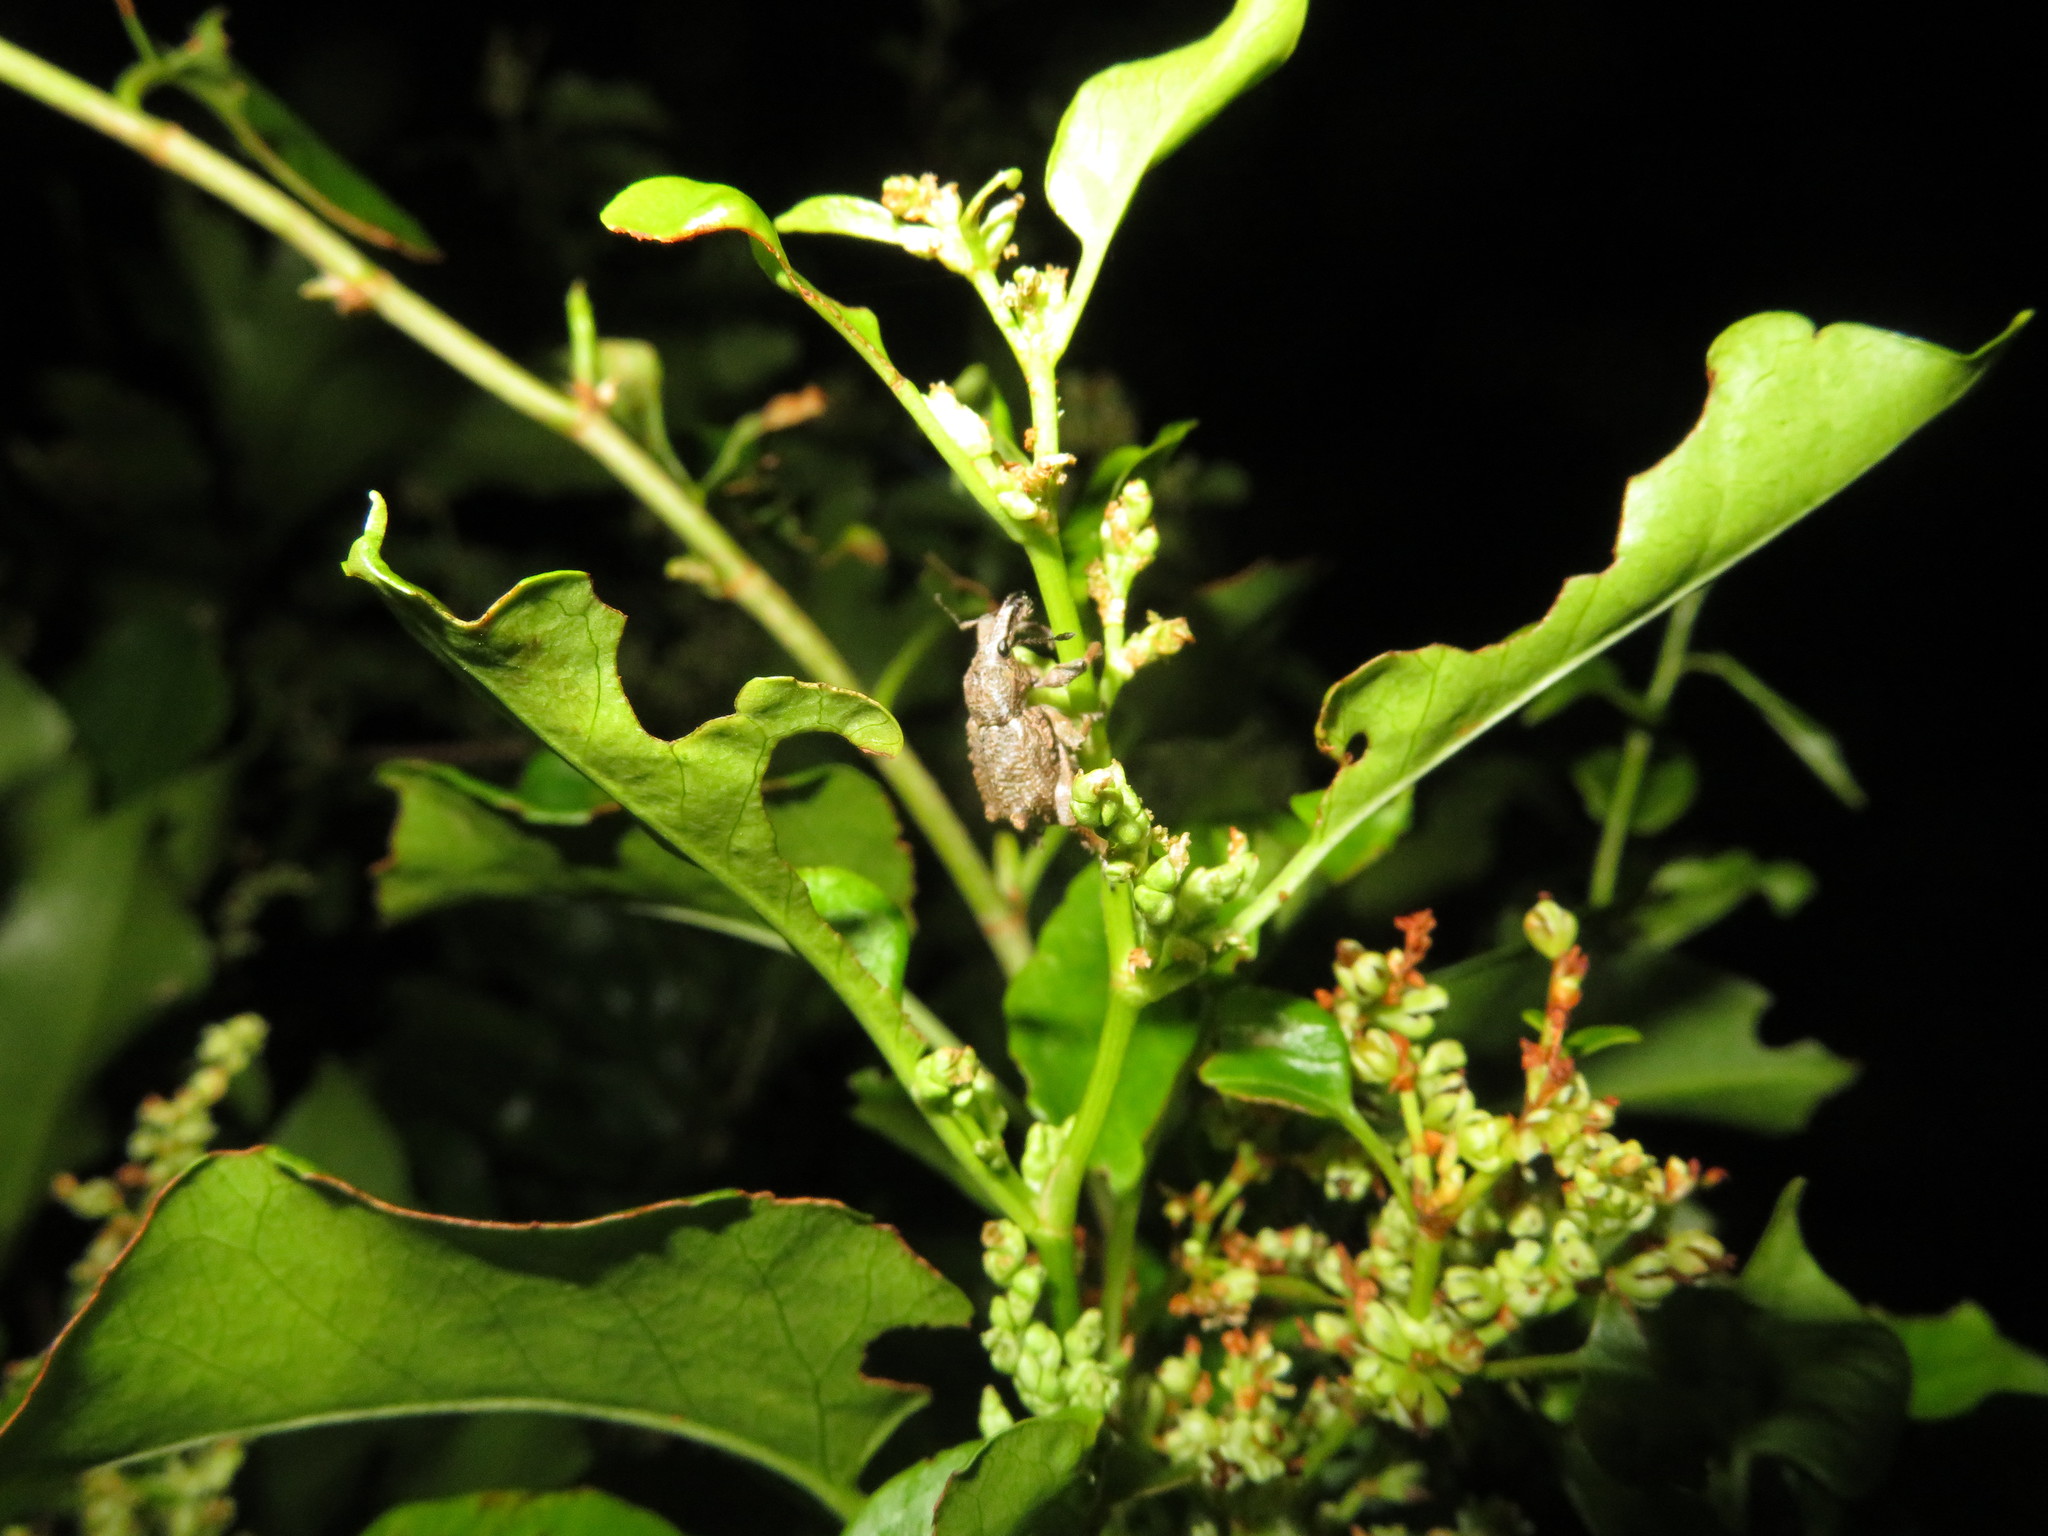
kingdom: Animalia
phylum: Arthropoda
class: Insecta
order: Coleoptera
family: Curculionidae
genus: Catoptes
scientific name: Catoptes binodis
